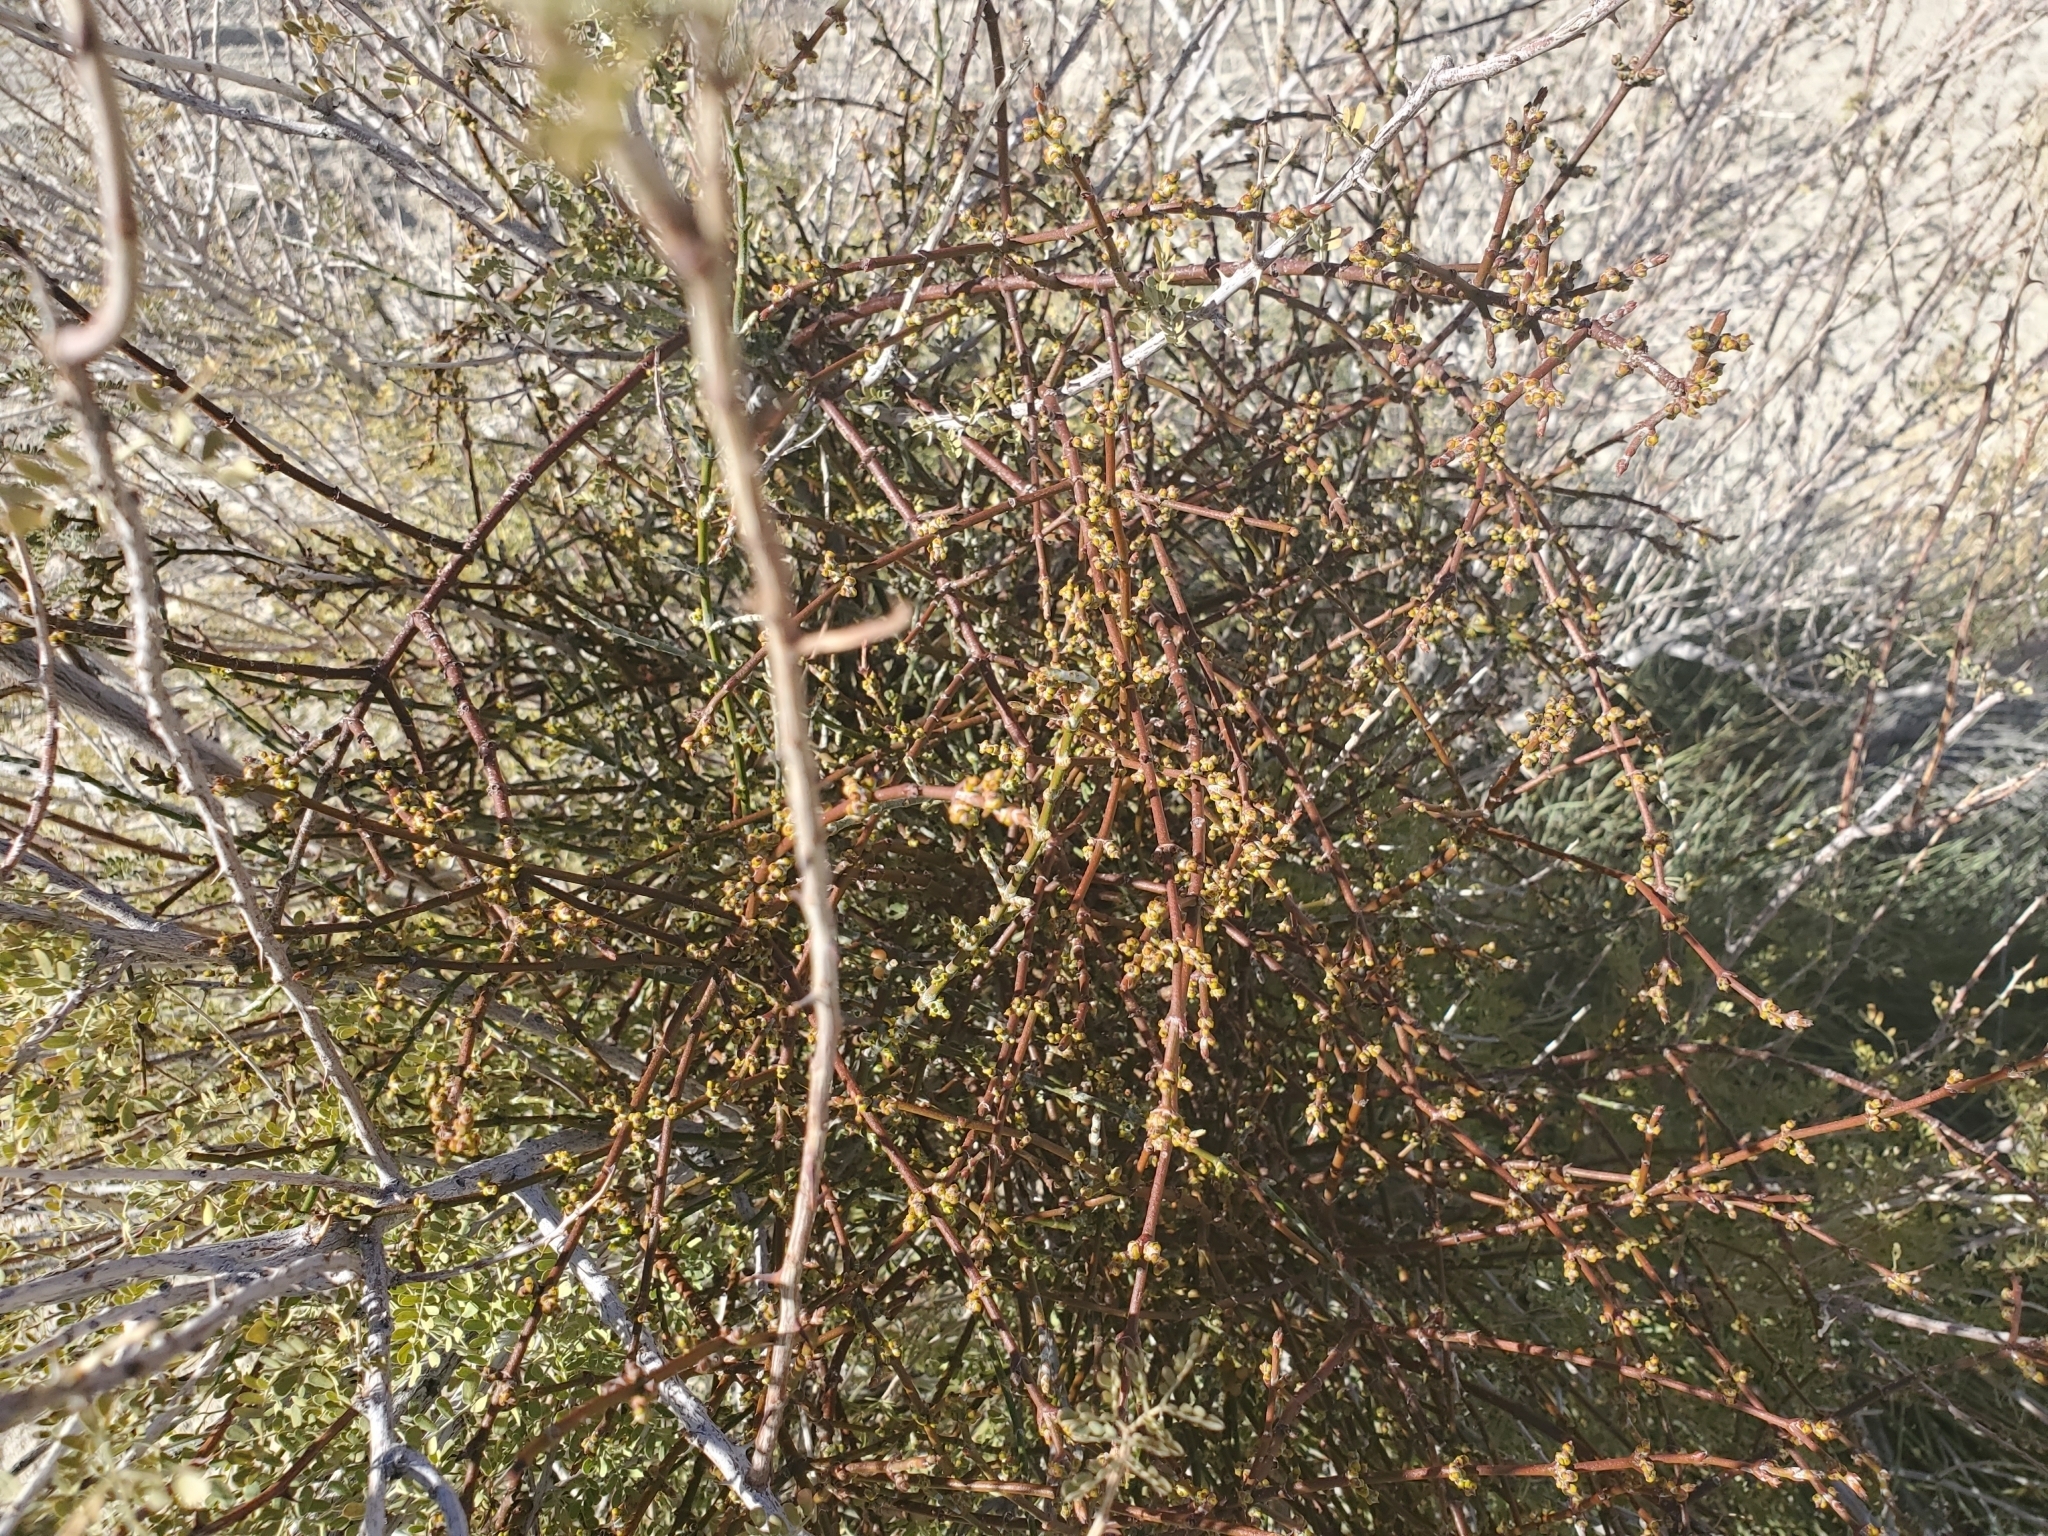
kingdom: Plantae
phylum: Tracheophyta
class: Magnoliopsida
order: Santalales
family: Viscaceae
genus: Phoradendron
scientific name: Phoradendron californicum
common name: Acacia mistletoe
